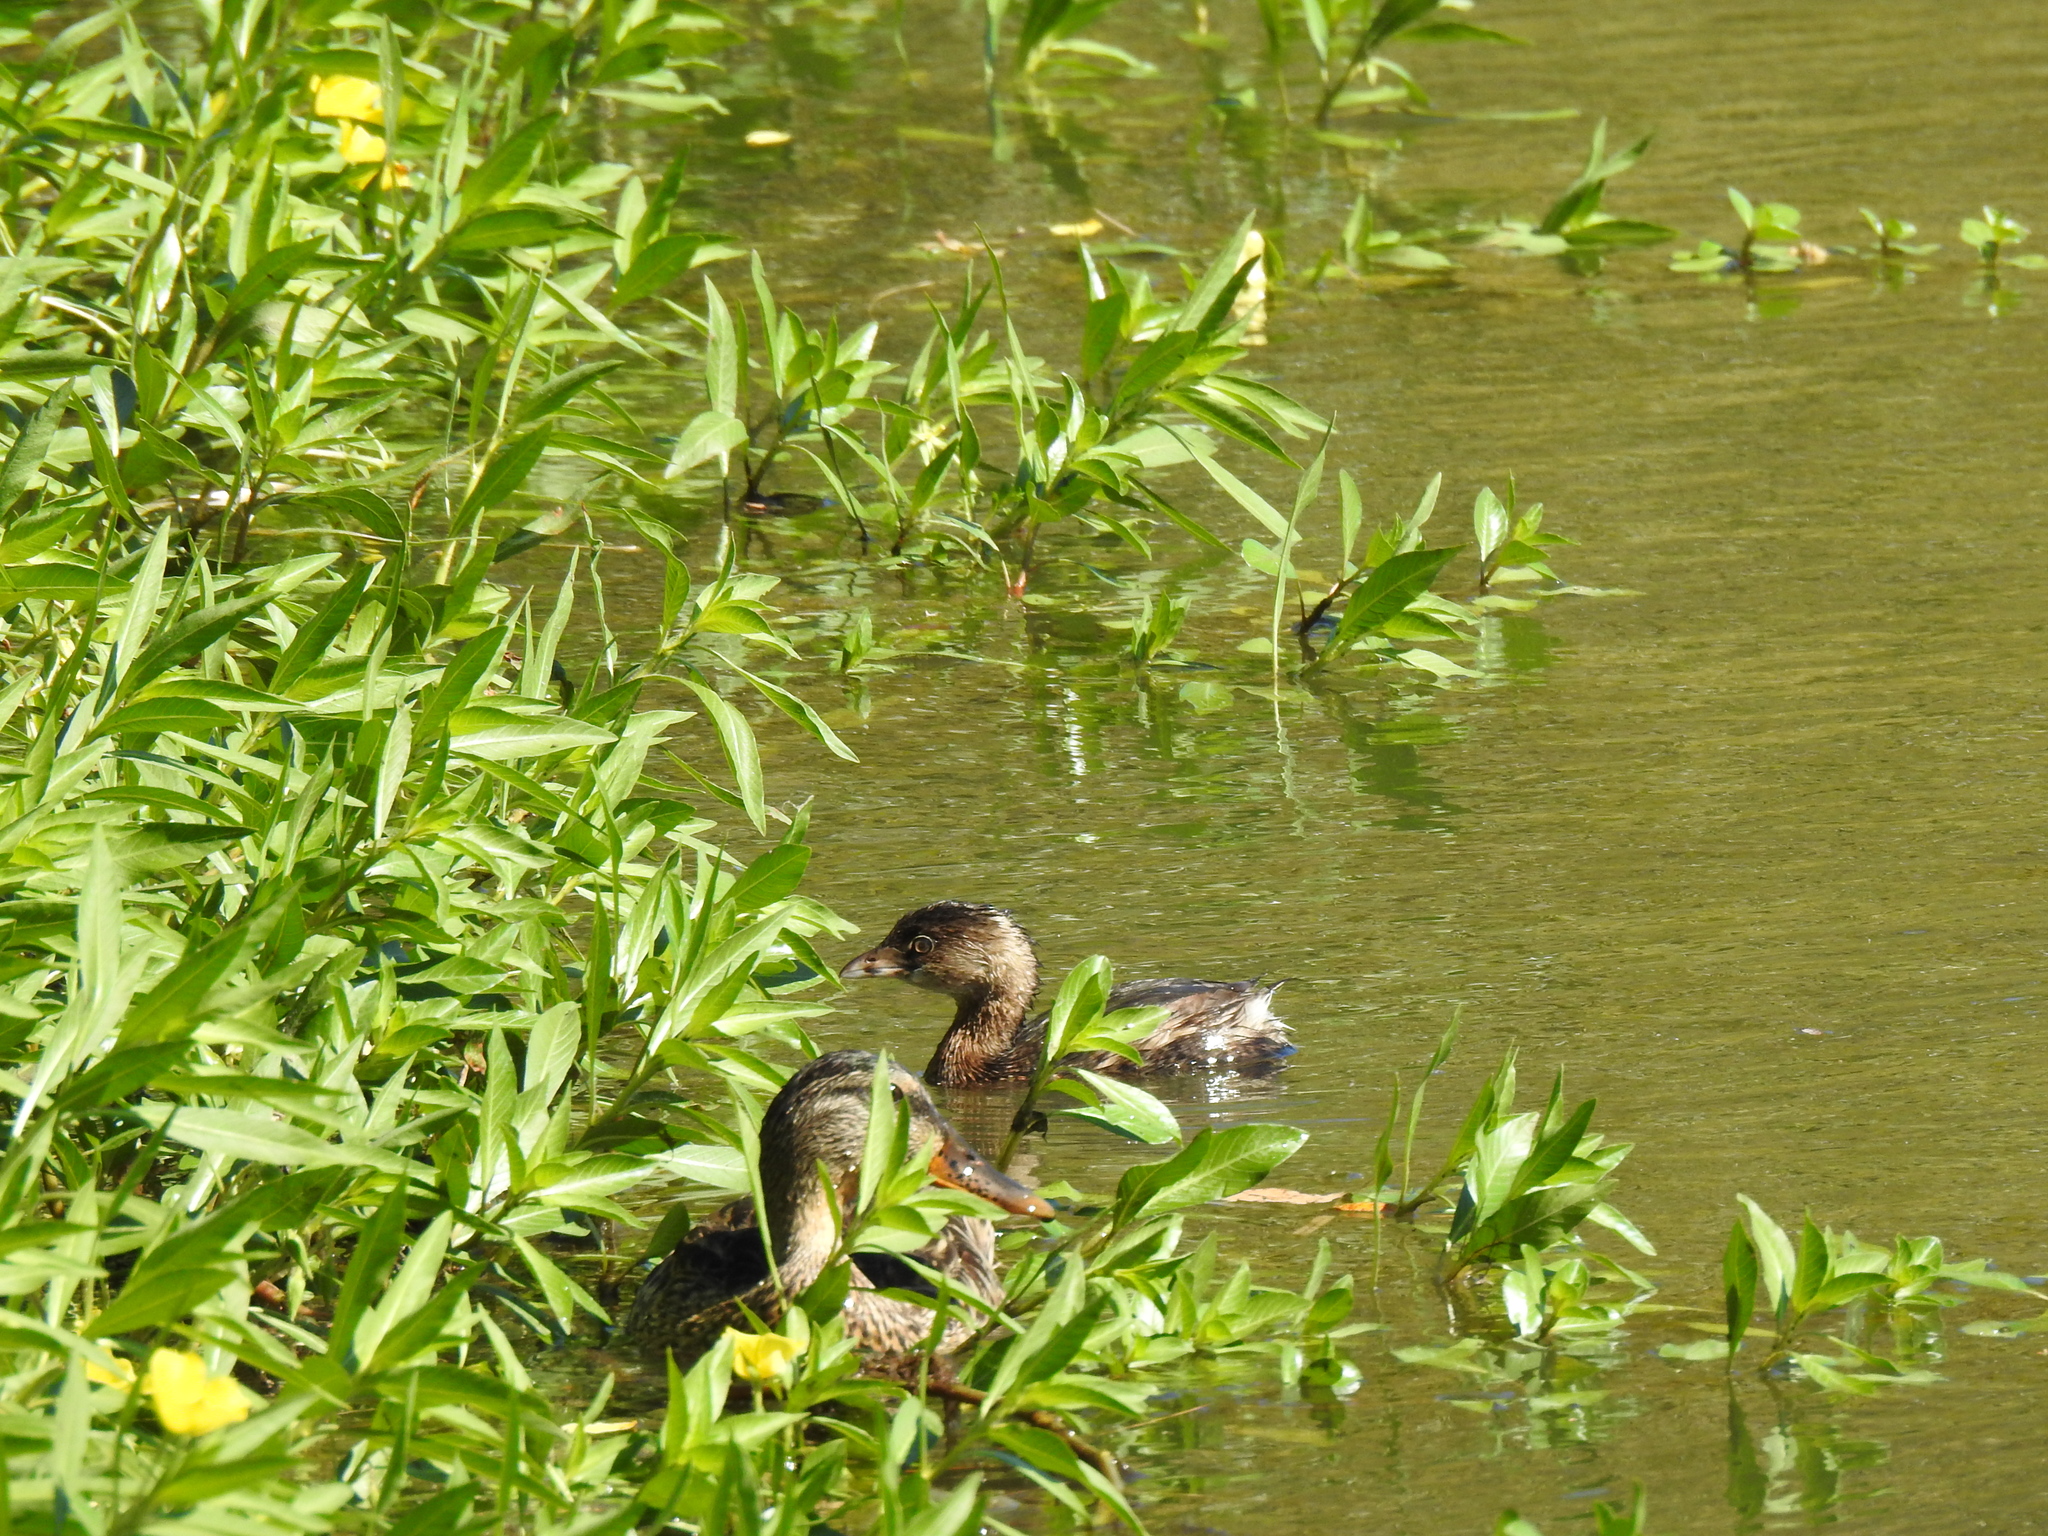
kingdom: Animalia
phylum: Chordata
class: Aves
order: Podicipediformes
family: Podicipedidae
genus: Podilymbus
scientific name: Podilymbus podiceps
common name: Pied-billed grebe
